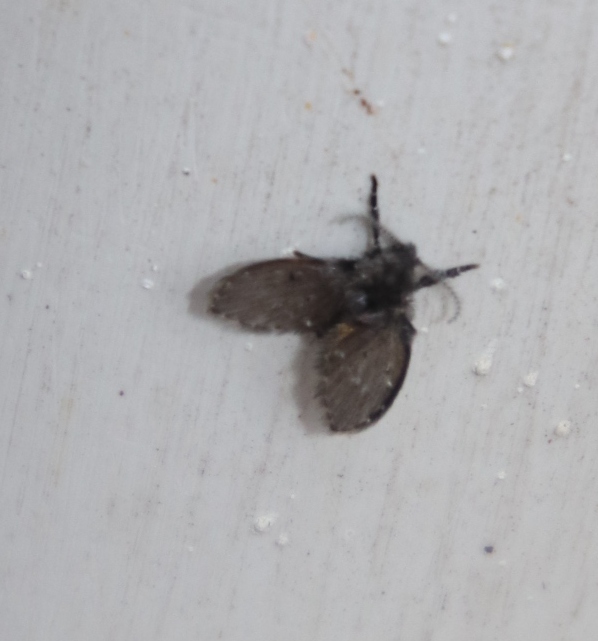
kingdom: Animalia
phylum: Arthropoda
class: Insecta
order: Diptera
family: Psychodidae
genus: Clogmia
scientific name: Clogmia albipunctatus
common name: White-spotted moth fly
